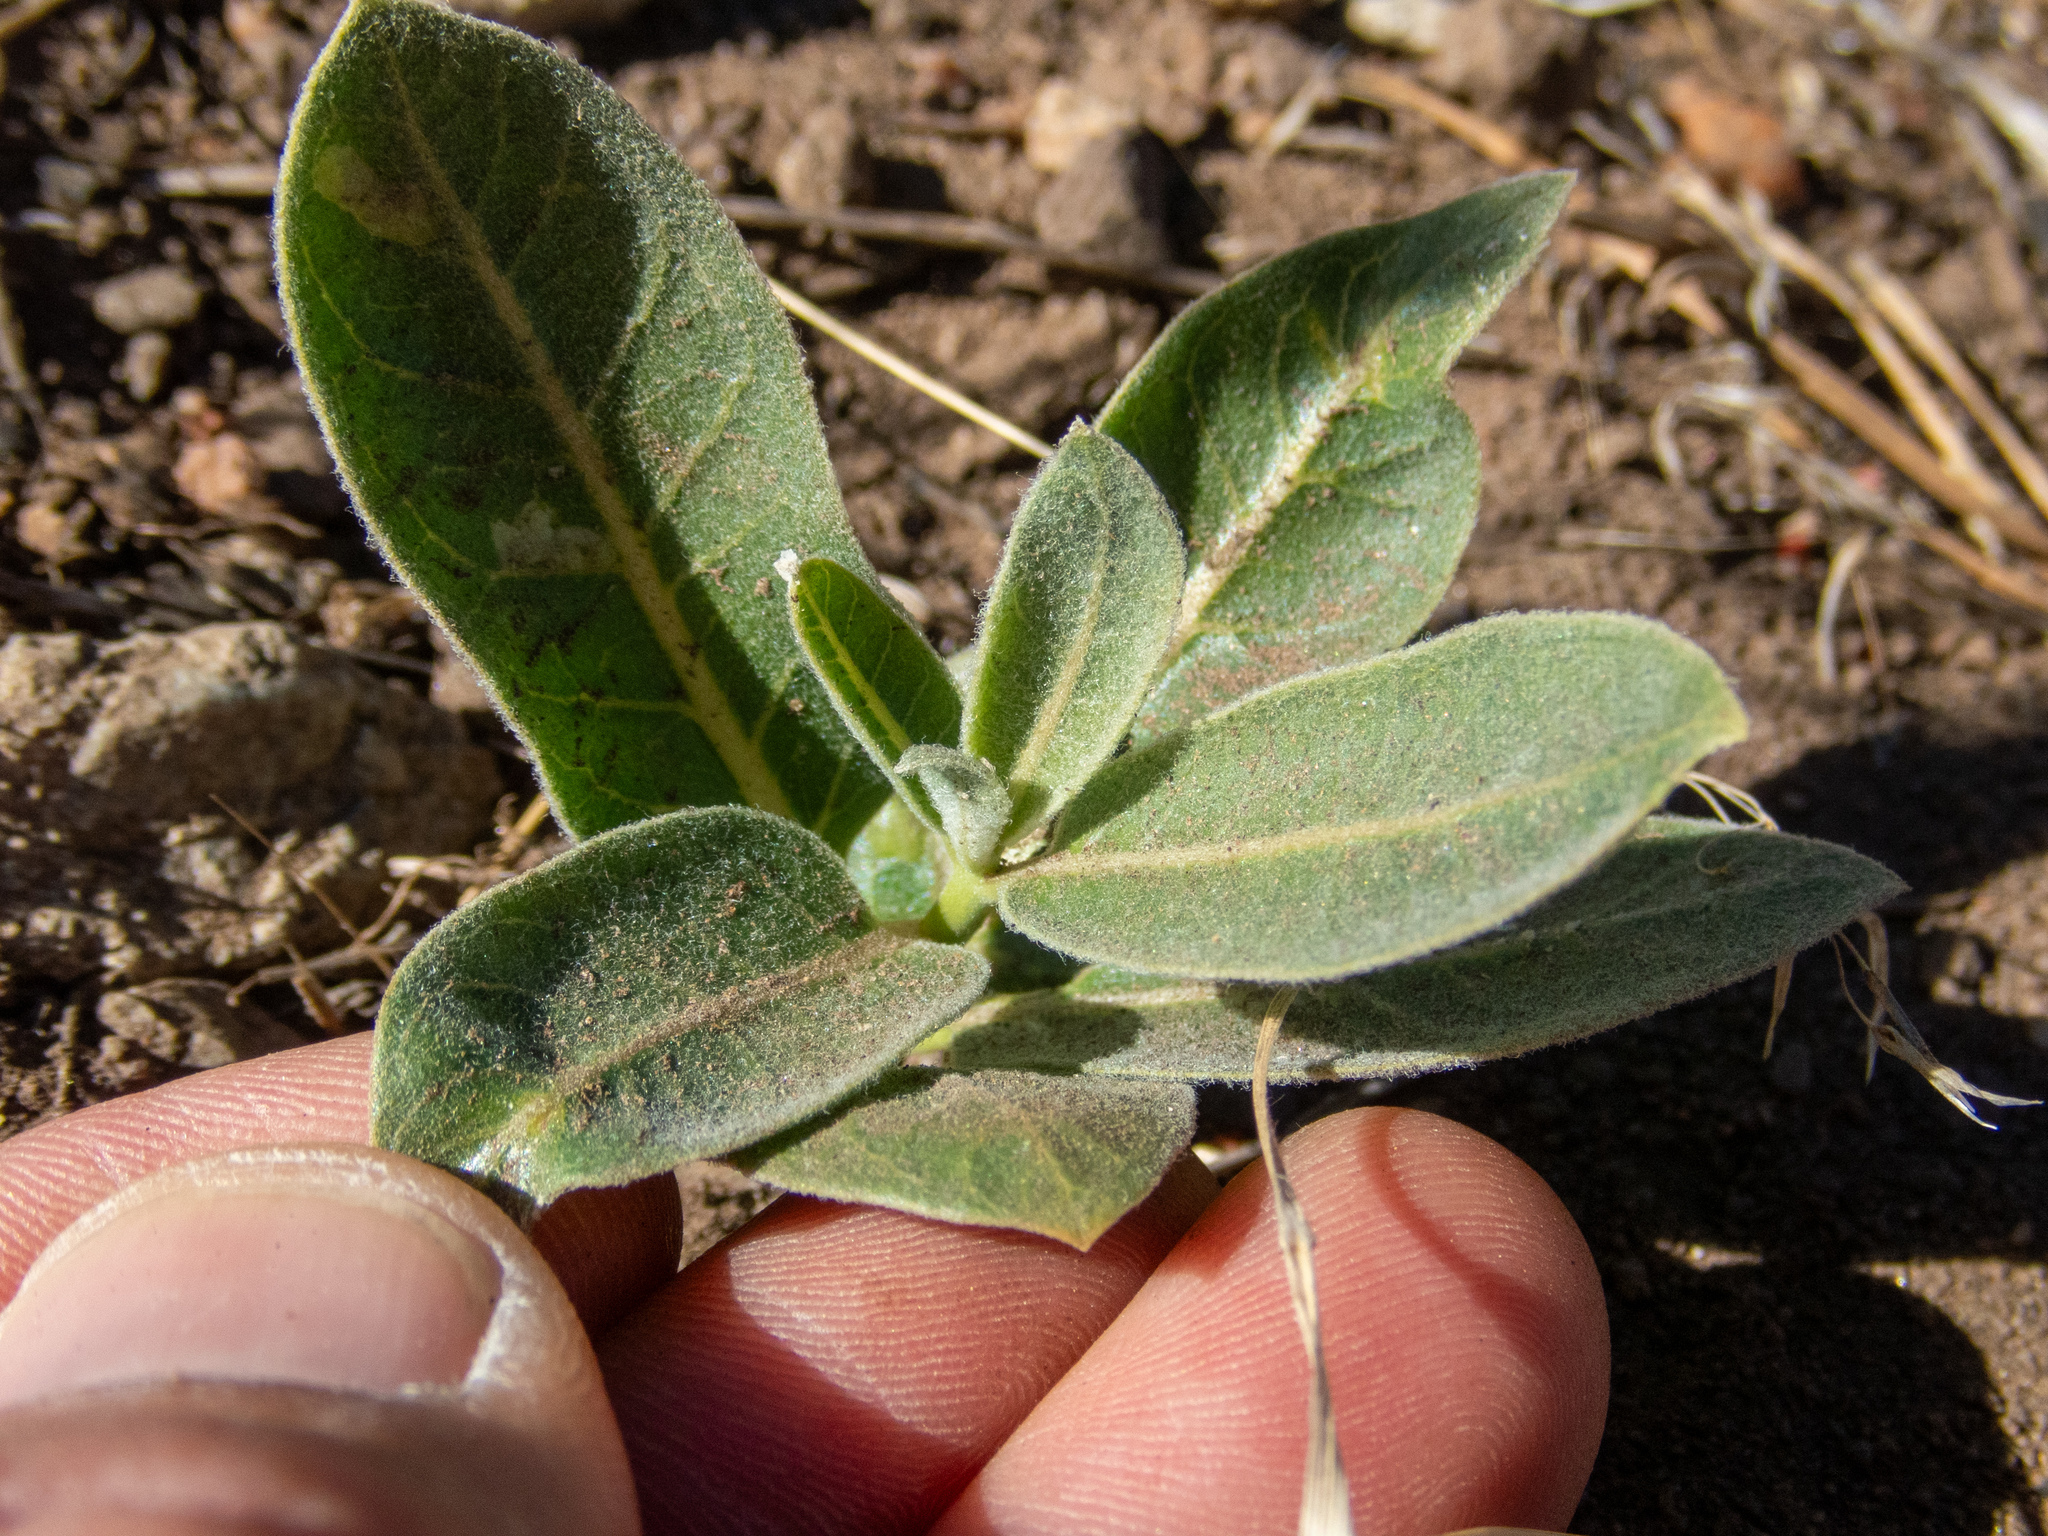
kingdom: Plantae
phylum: Tracheophyta
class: Magnoliopsida
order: Gentianales
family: Apocynaceae
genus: Asclepias
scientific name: Asclepias eriocarpa
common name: Indian milkweed
